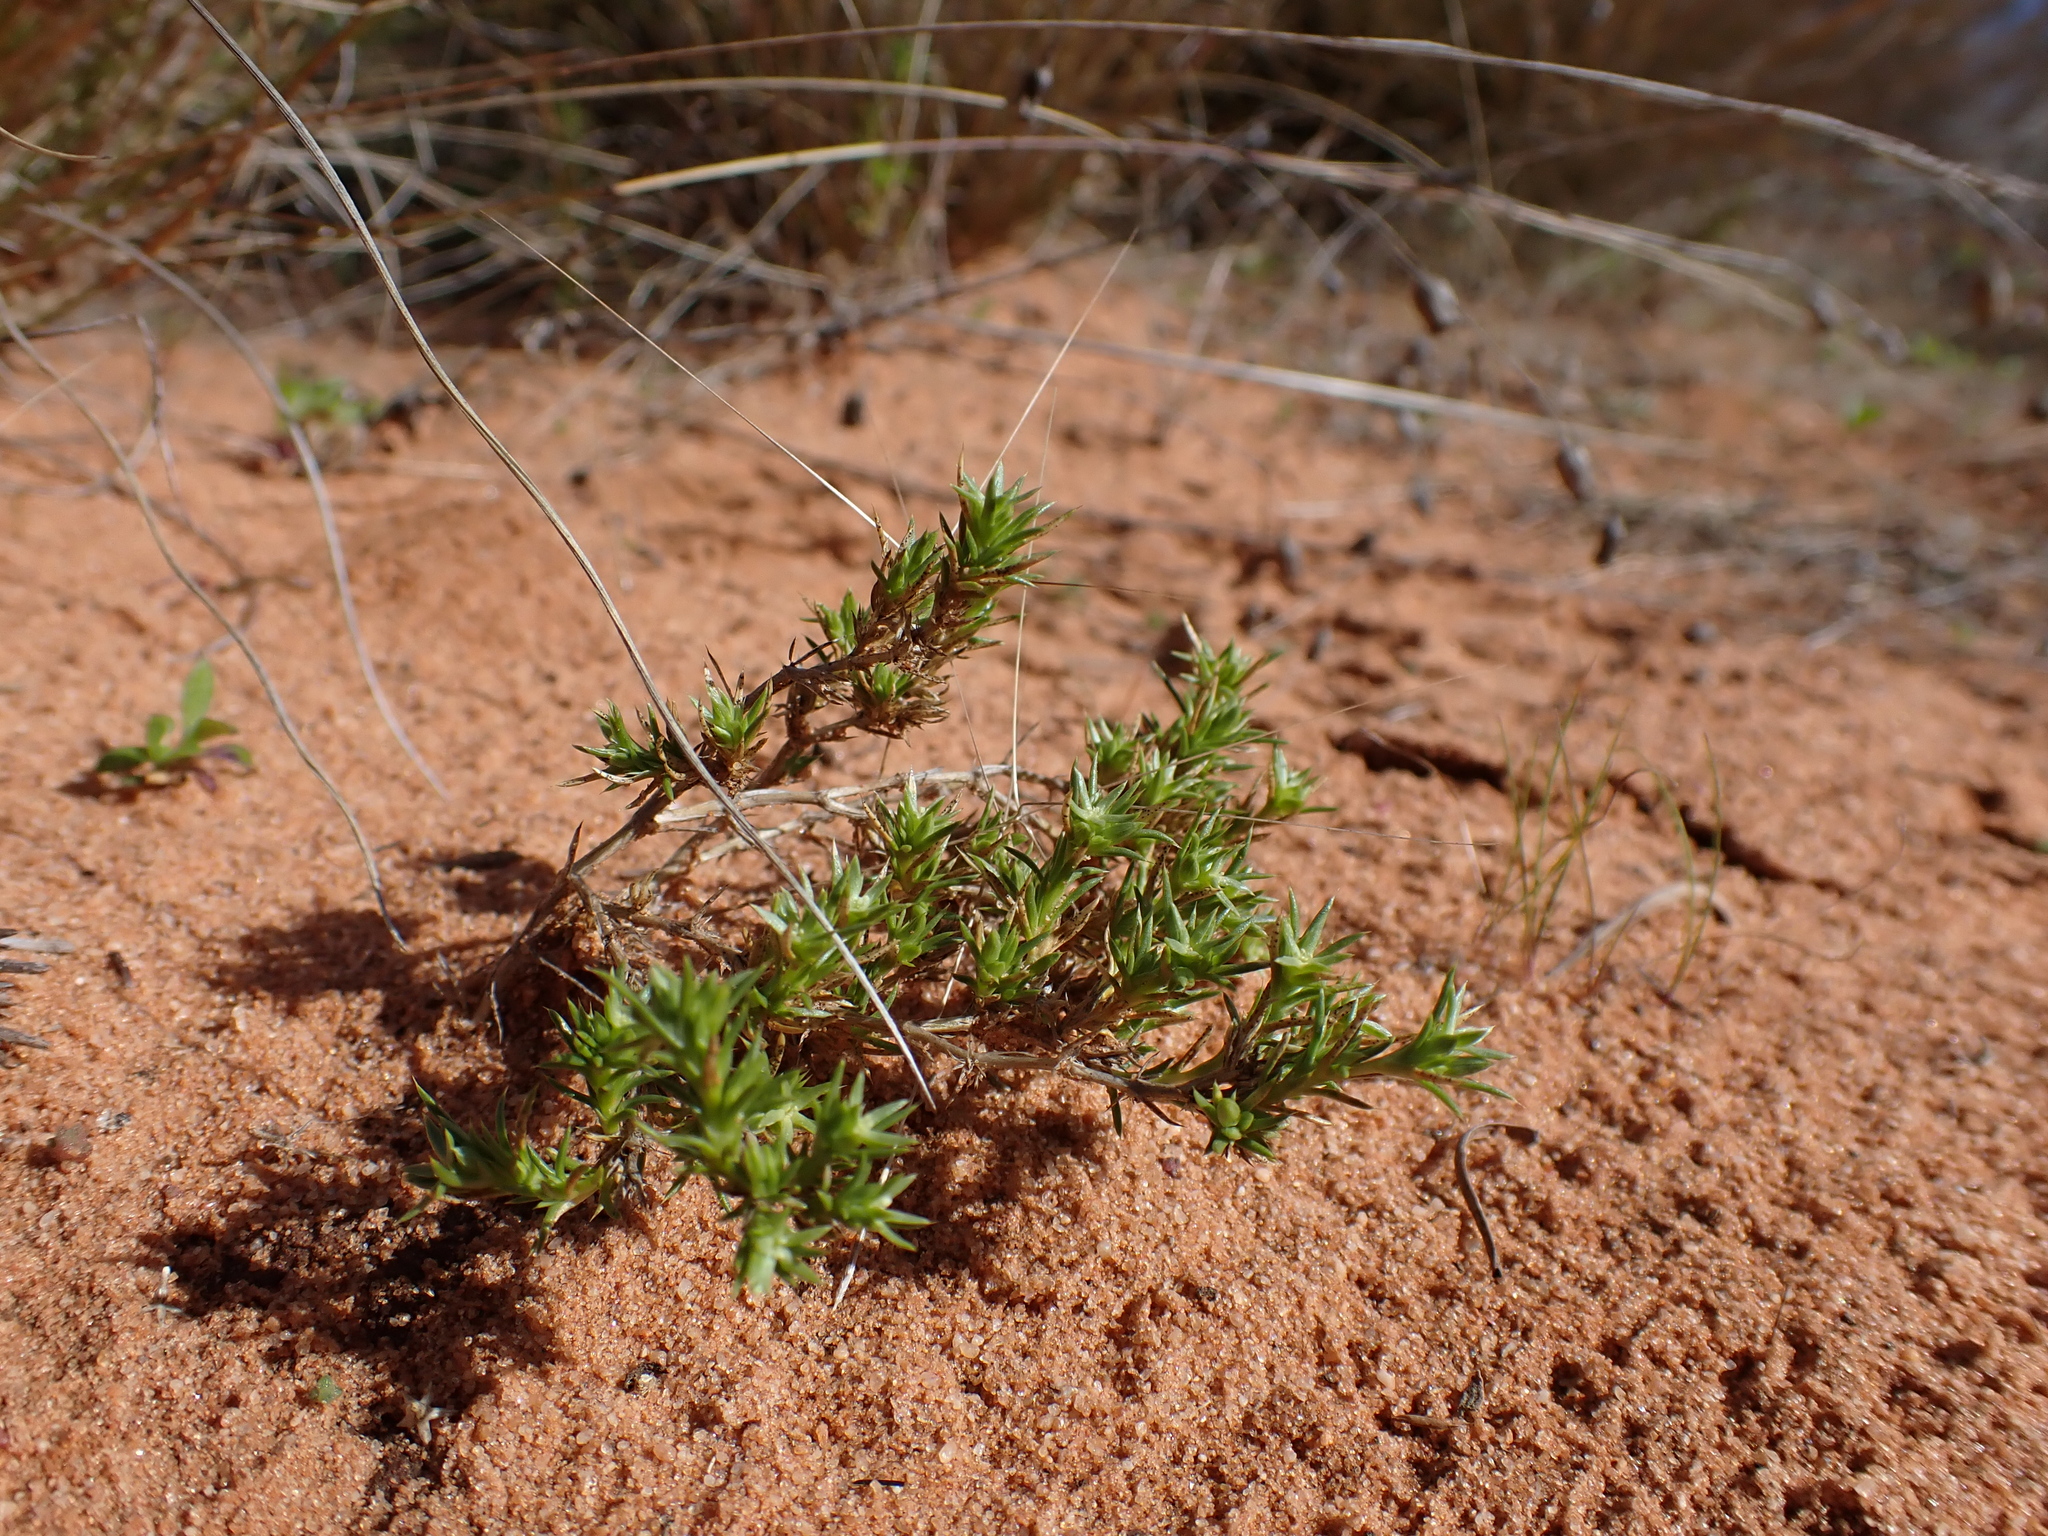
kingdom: Plantae
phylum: Tracheophyta
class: Magnoliopsida
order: Caryophyllales
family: Caryophyllaceae
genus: Scleranthus
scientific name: Scleranthus minusculus
